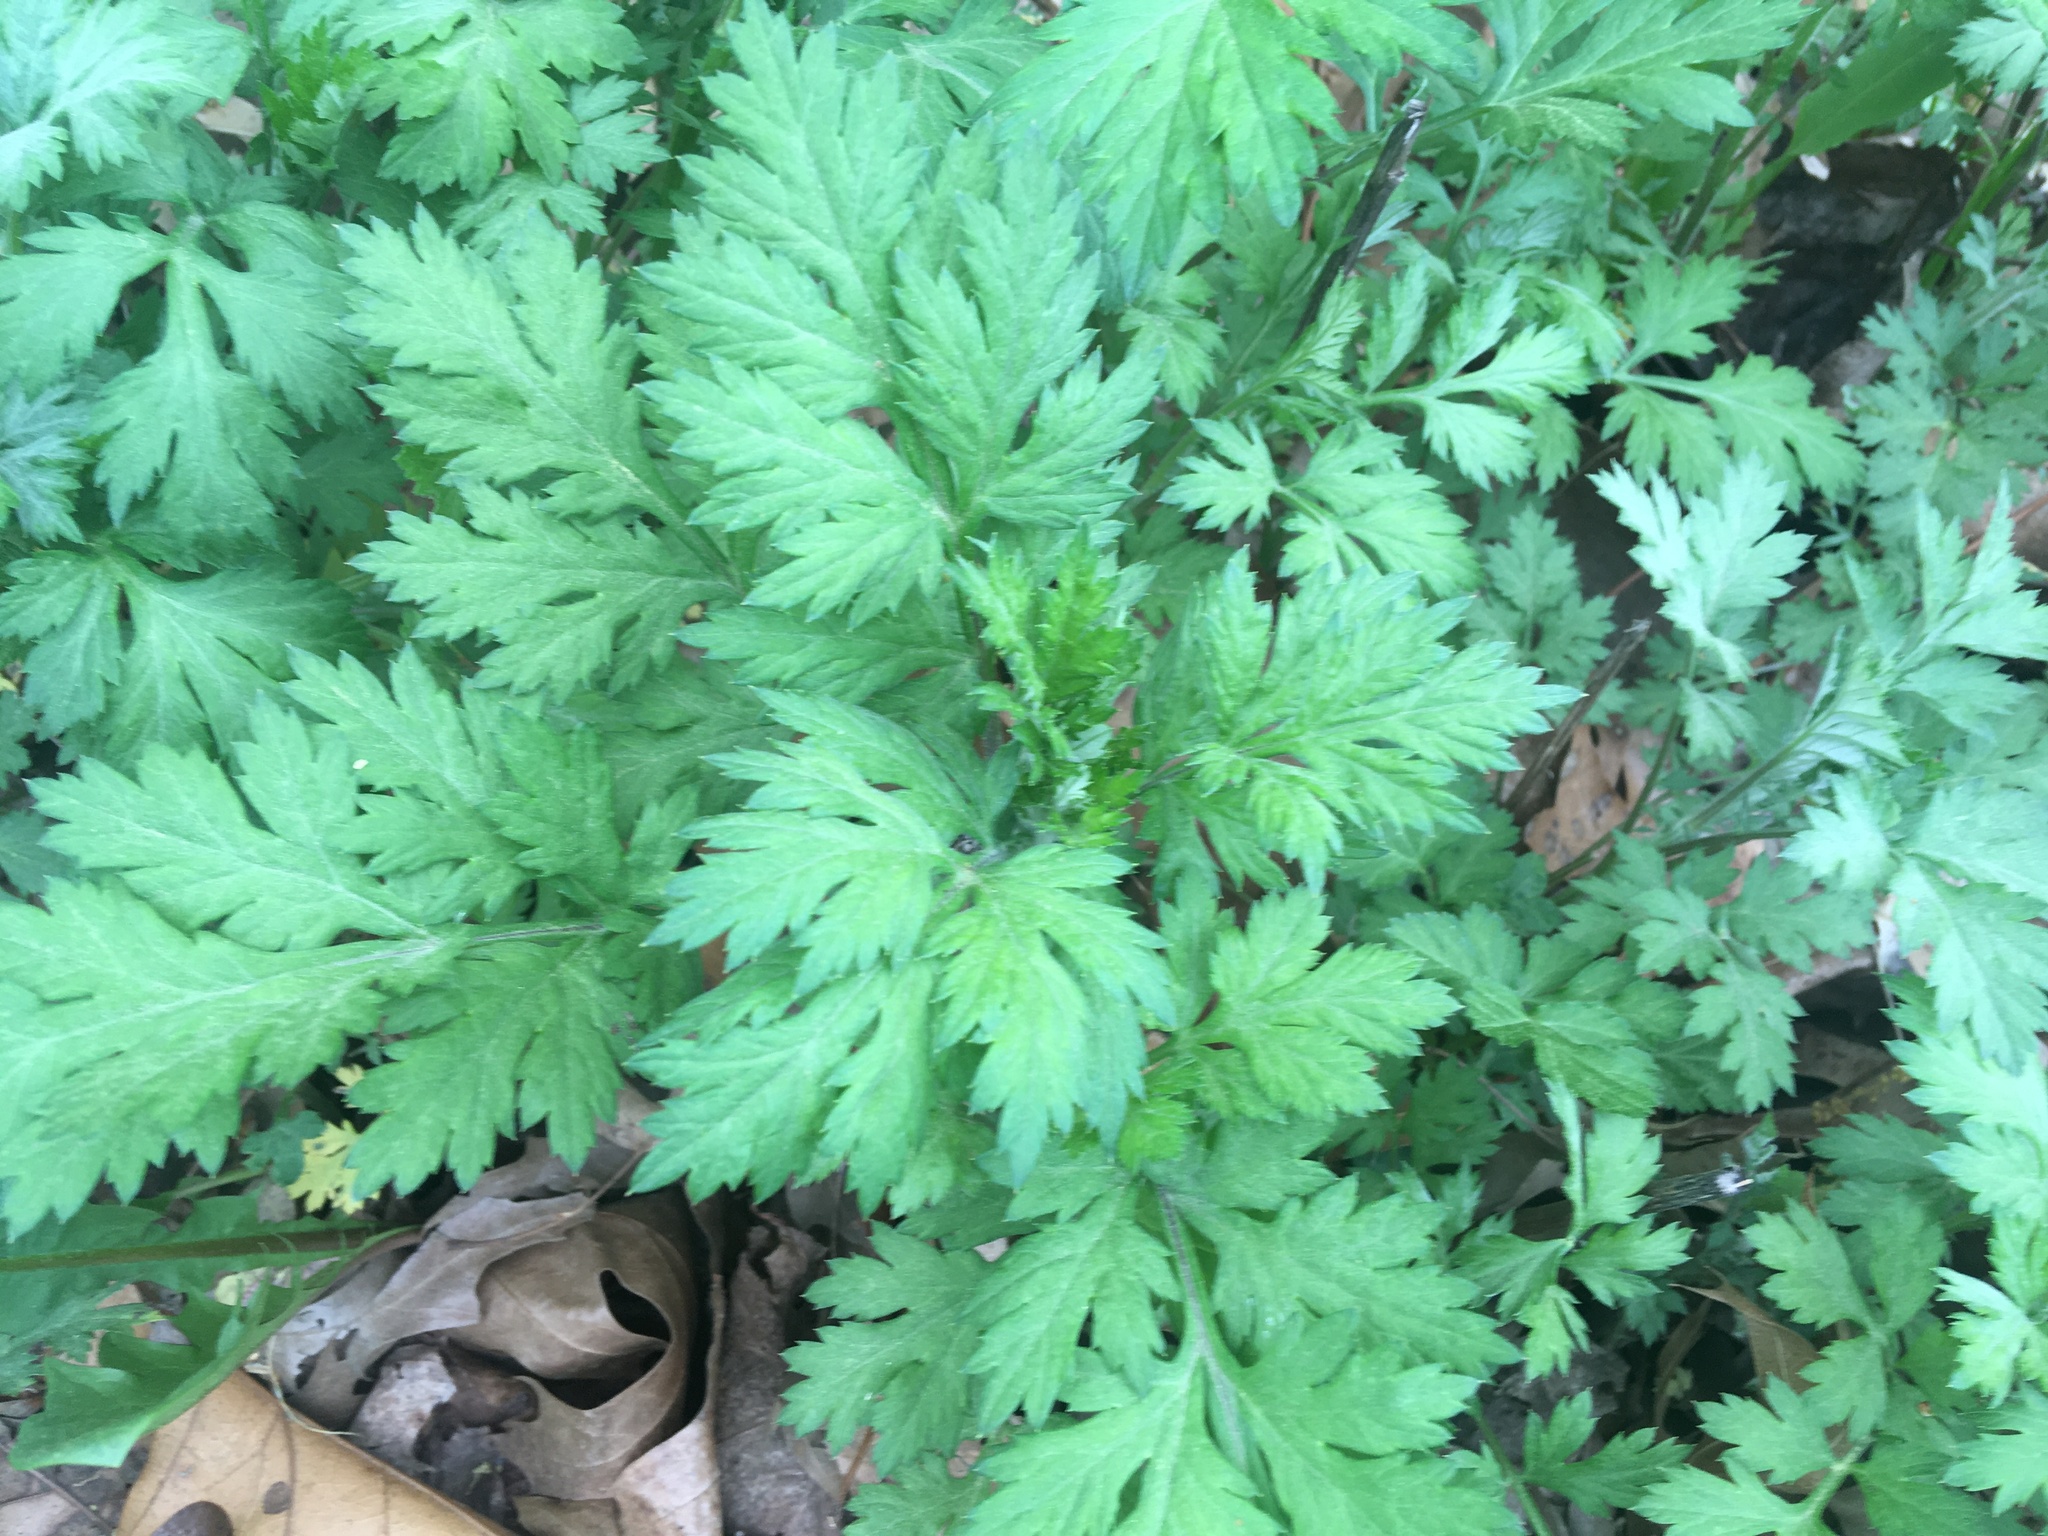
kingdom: Plantae
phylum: Tracheophyta
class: Magnoliopsida
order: Asterales
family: Asteraceae
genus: Artemisia
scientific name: Artemisia vulgaris
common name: Mugwort
